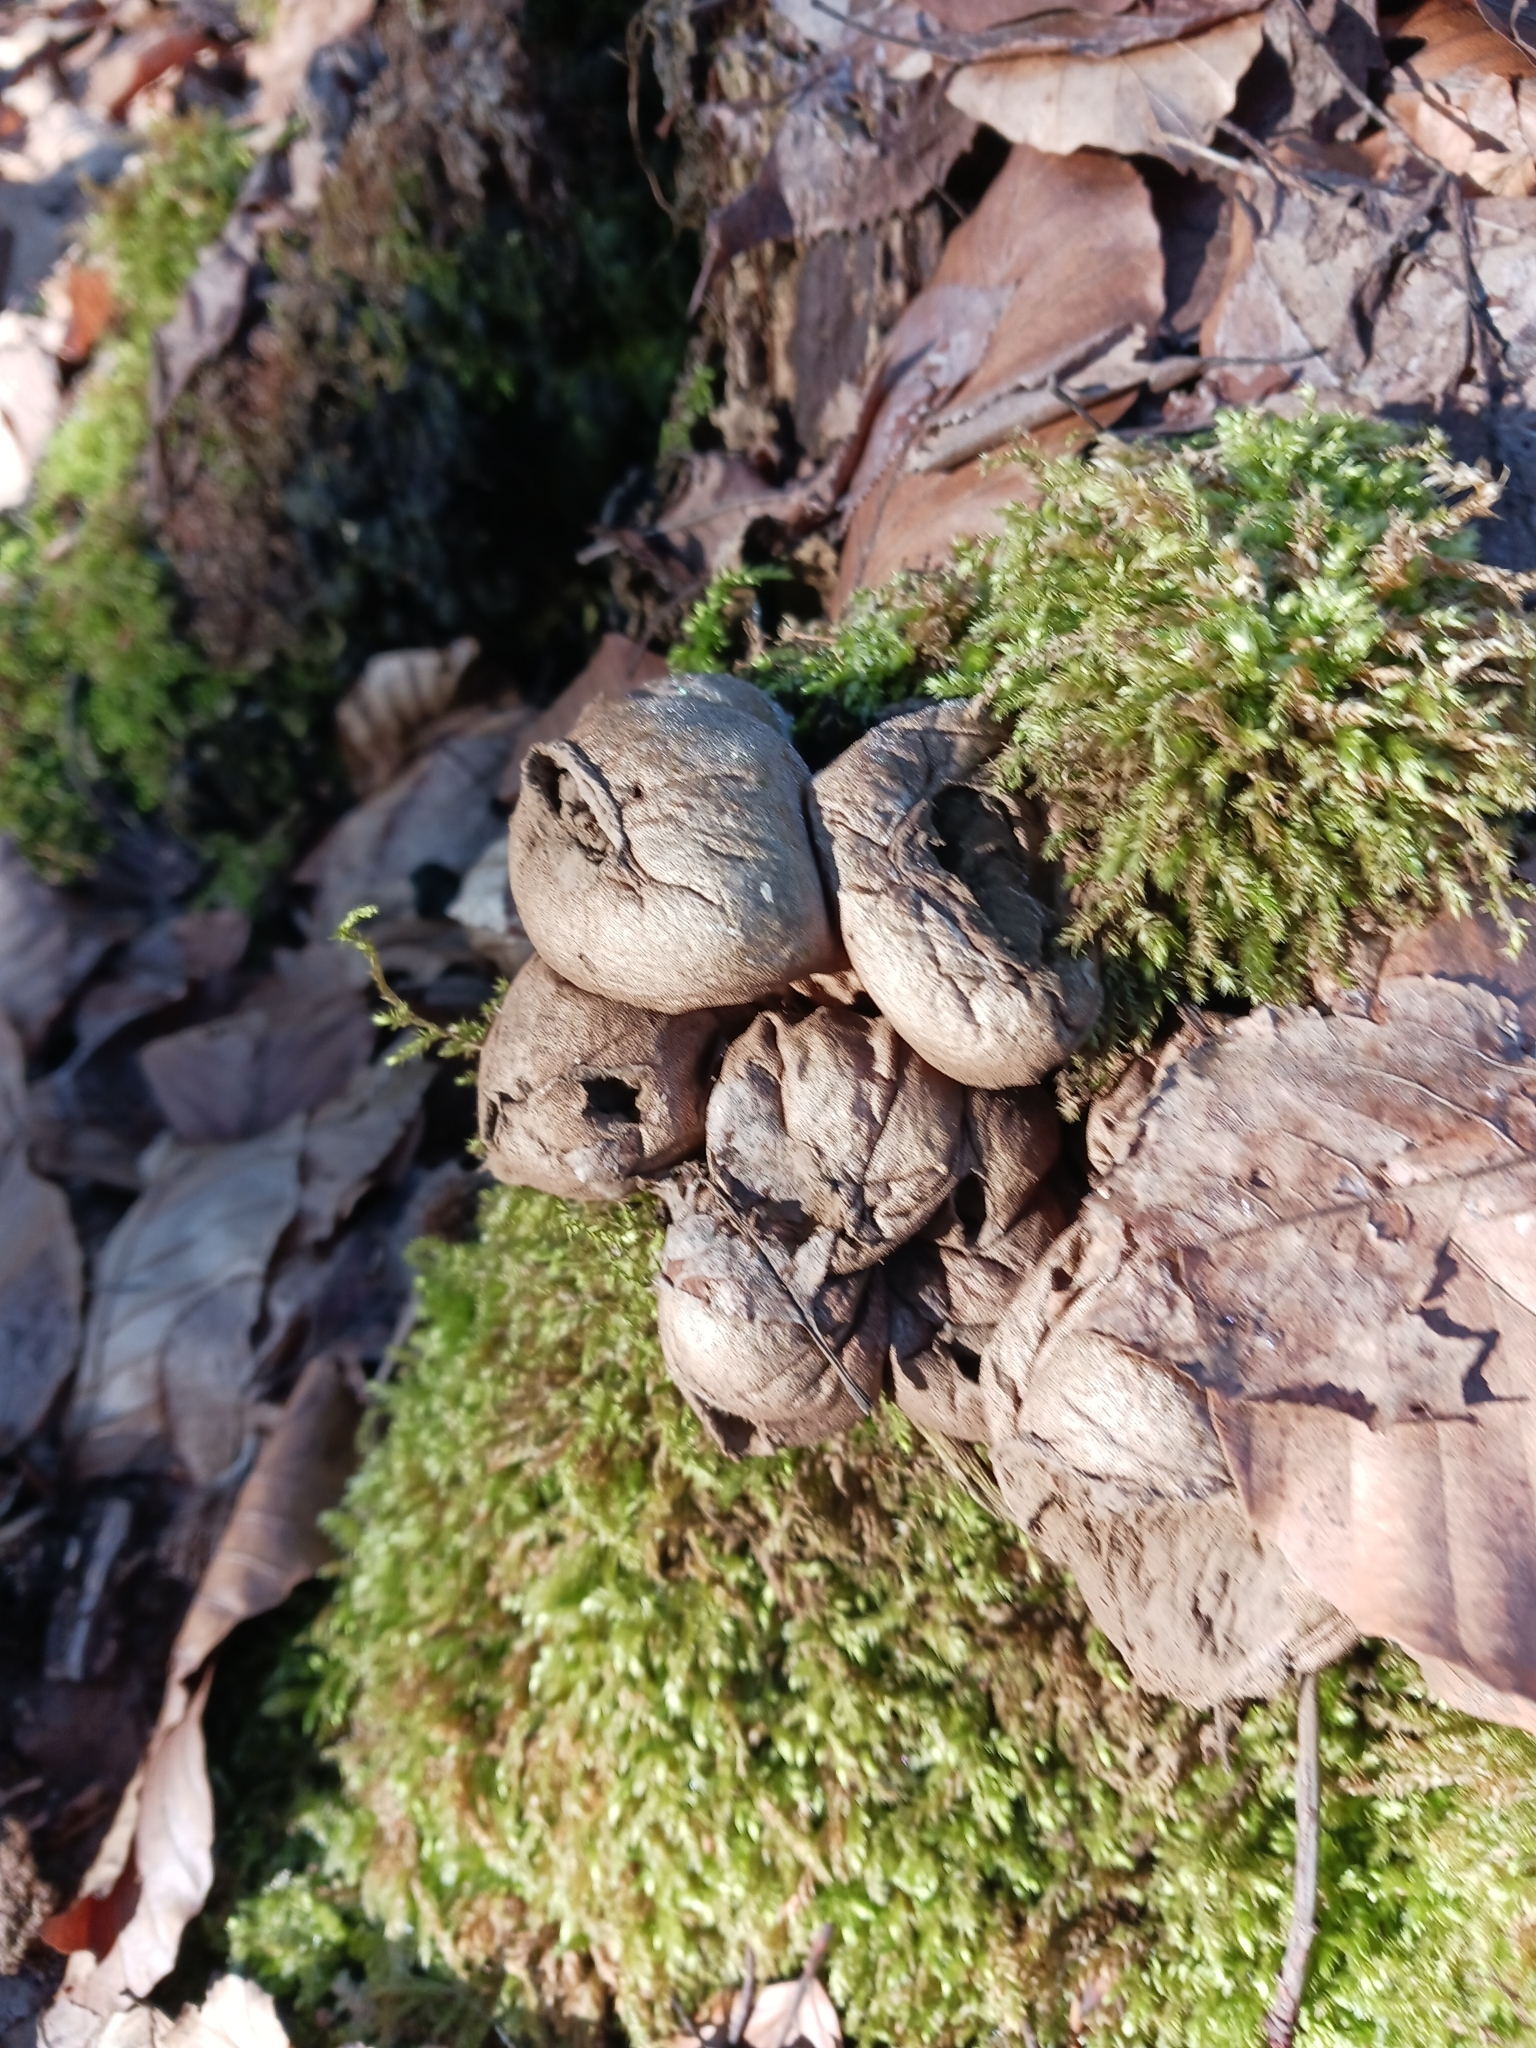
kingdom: Fungi
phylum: Basidiomycota
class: Agaricomycetes
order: Agaricales
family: Lycoperdaceae
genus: Apioperdon
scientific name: Apioperdon pyriforme
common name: Pear-shaped puffball
